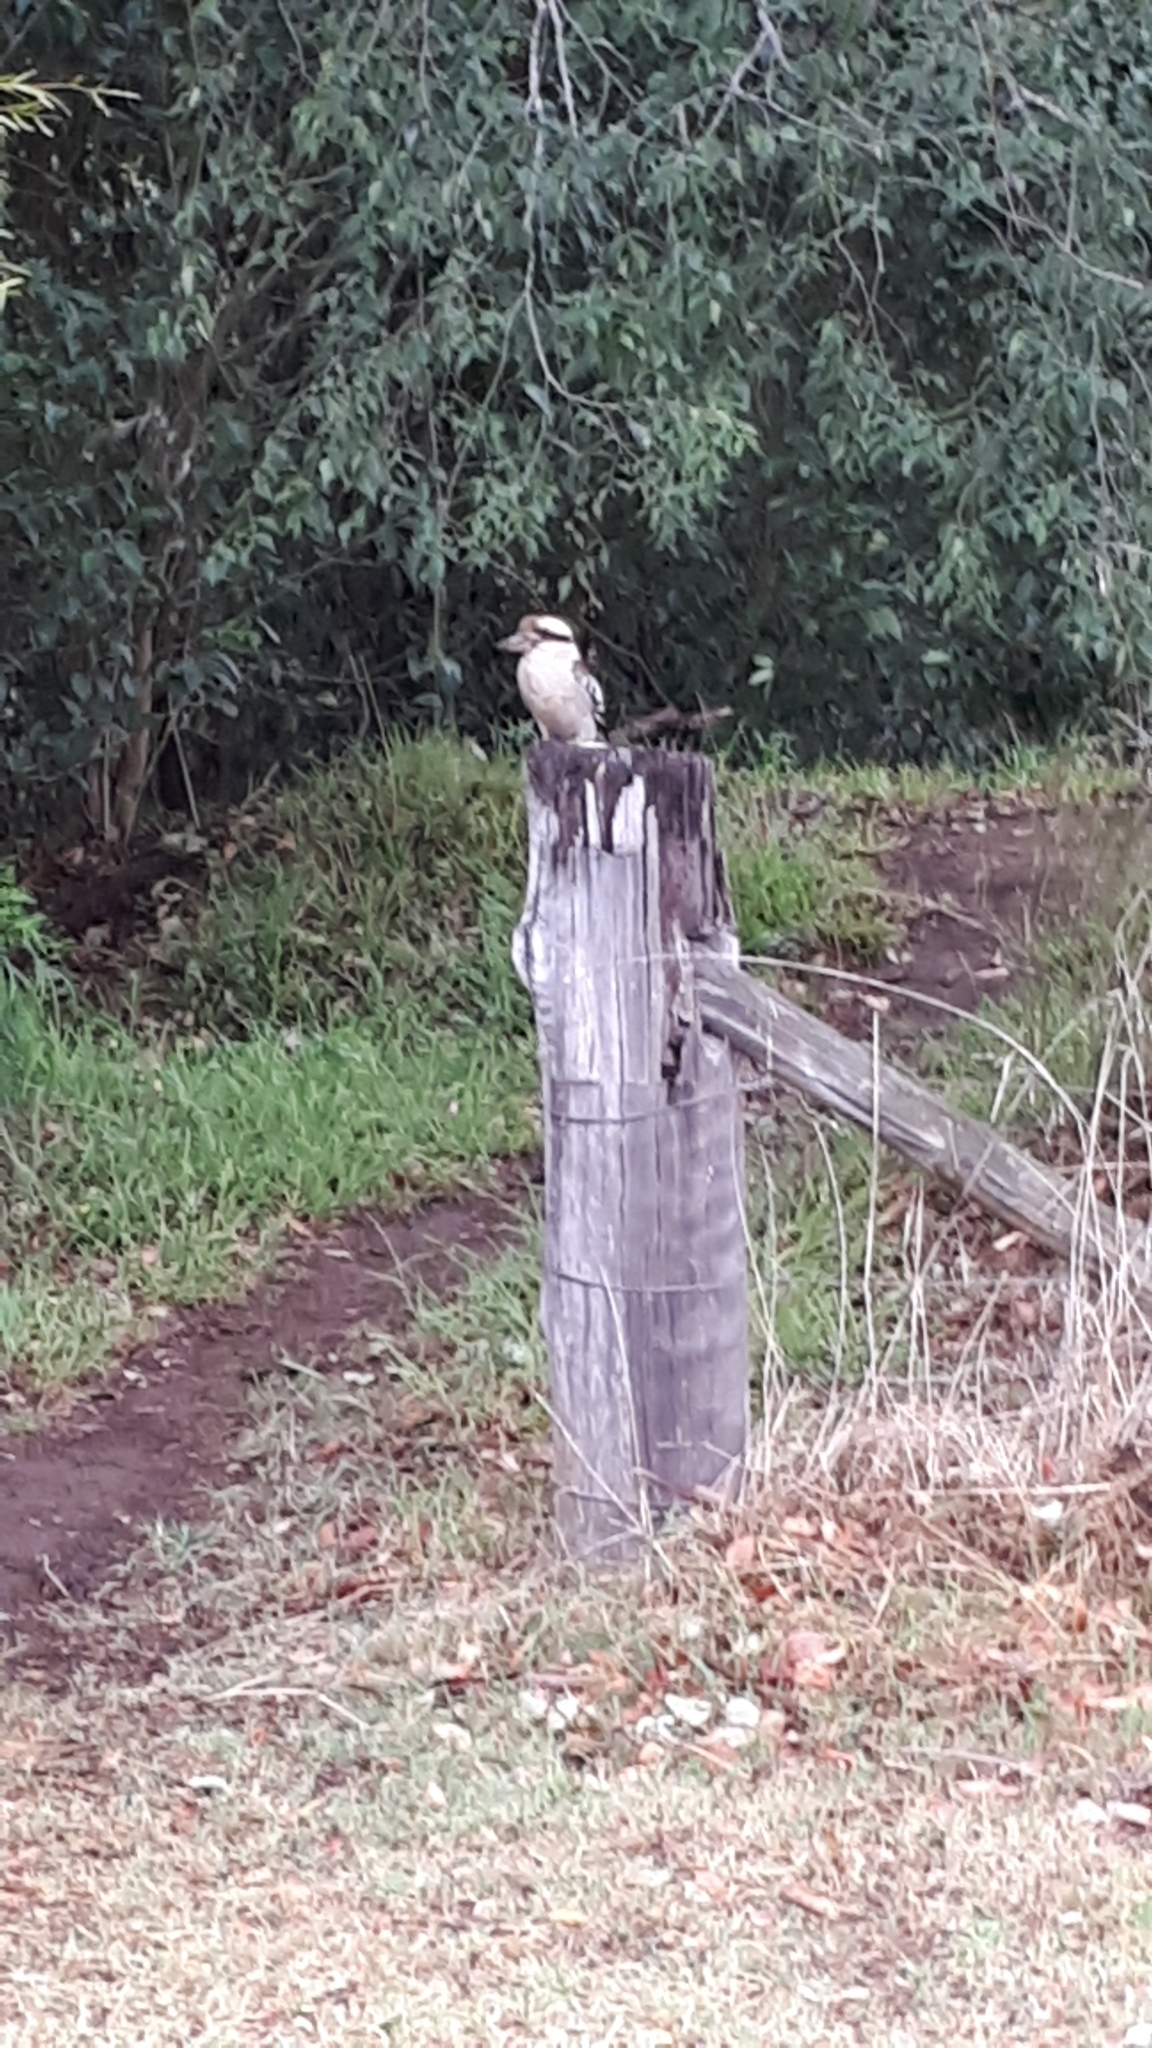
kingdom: Animalia
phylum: Chordata
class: Aves
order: Coraciiformes
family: Alcedinidae
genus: Dacelo
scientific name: Dacelo novaeguineae
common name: Laughing kookaburra
